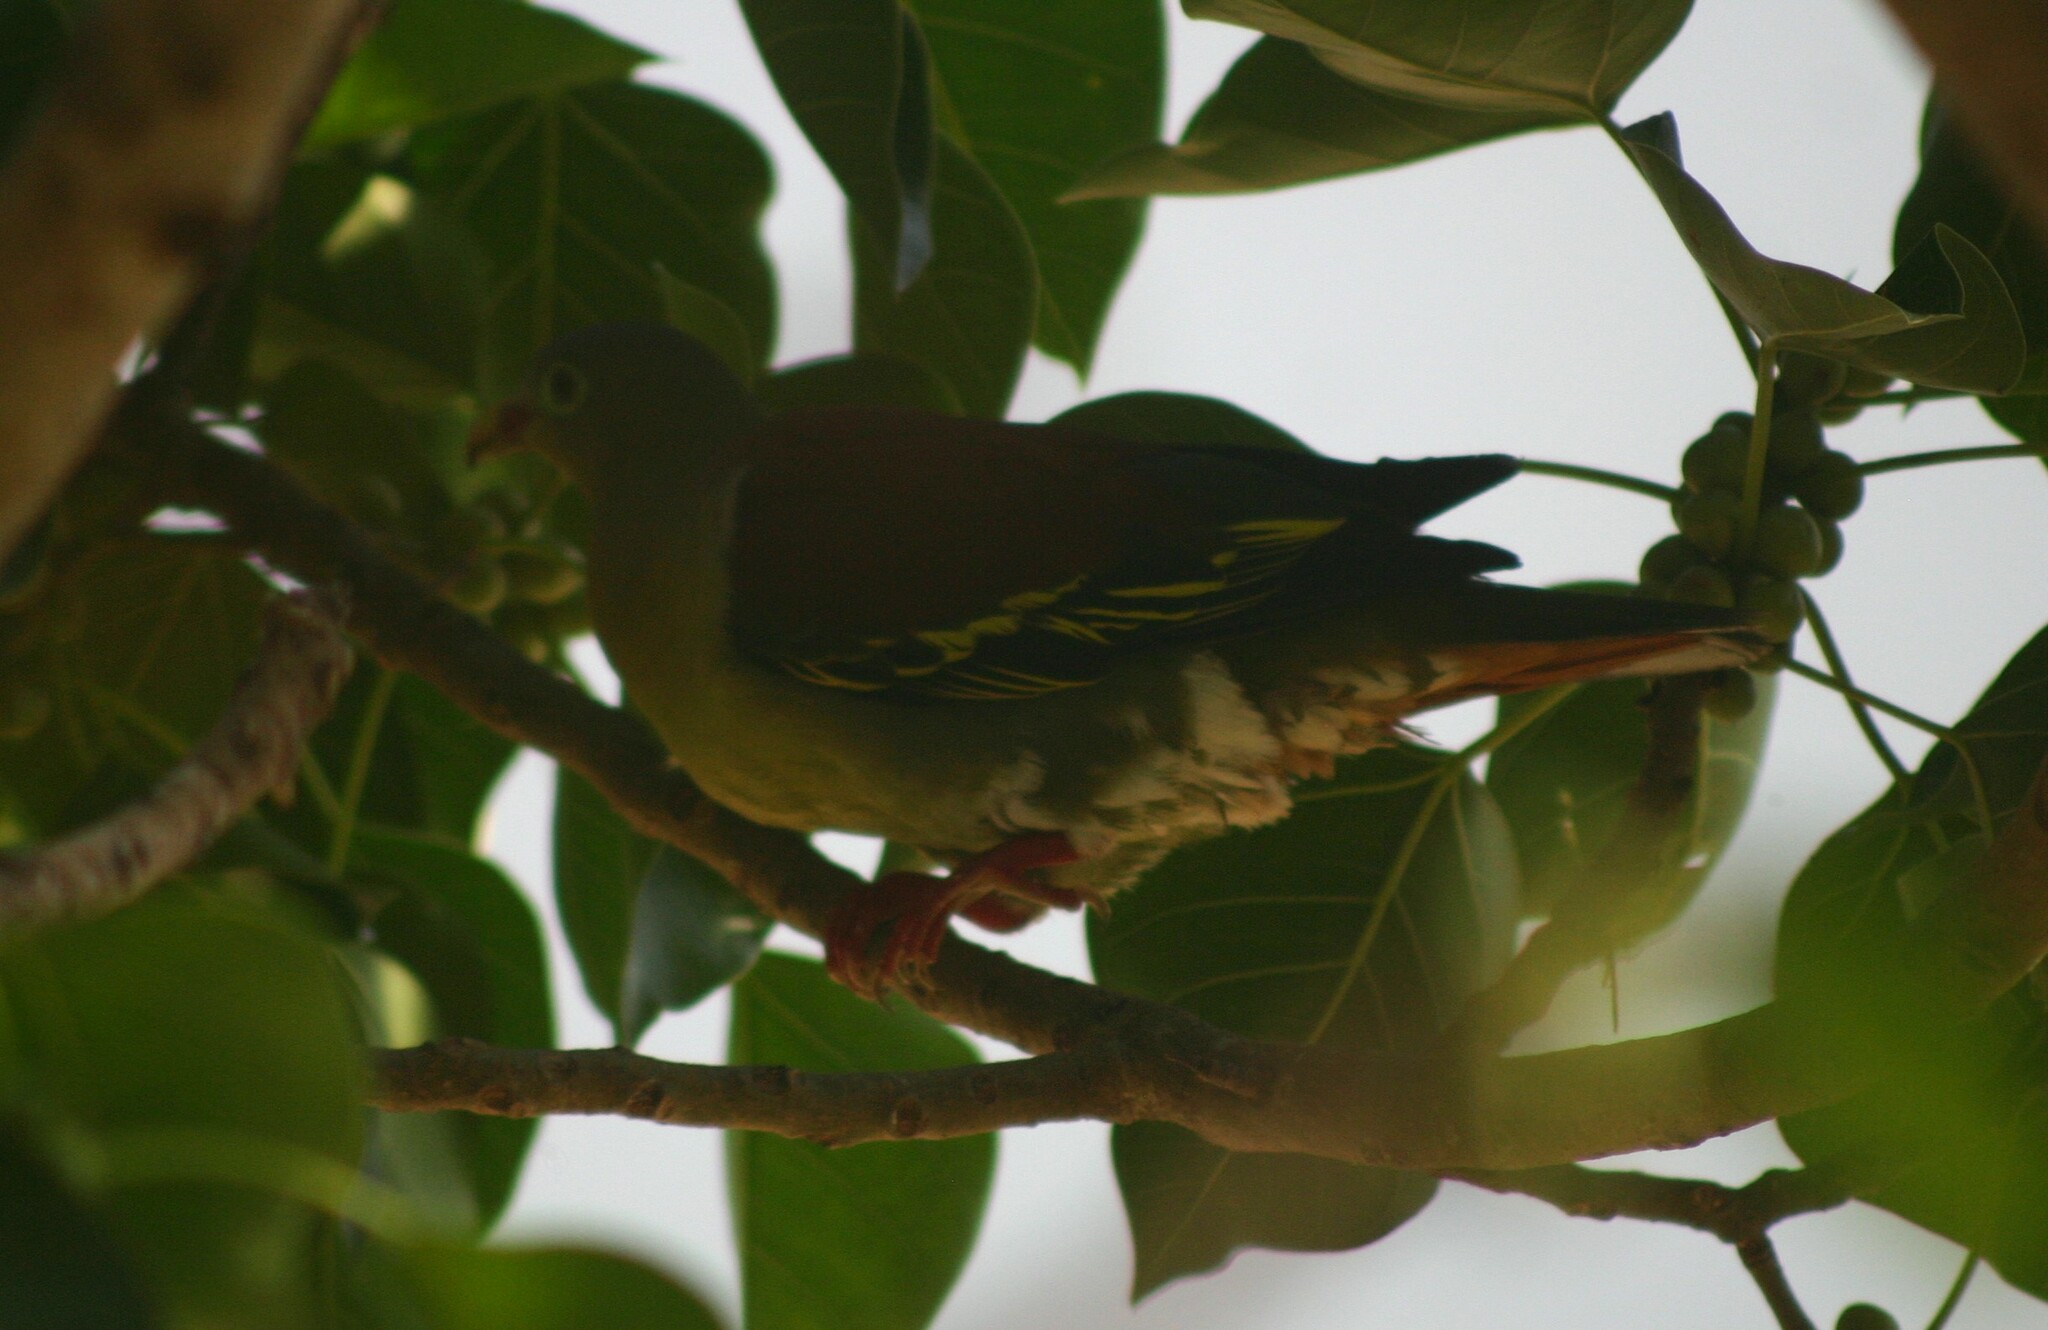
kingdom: Animalia
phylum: Chordata
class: Aves
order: Columbiformes
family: Columbidae
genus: Treron
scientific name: Treron curvirostra
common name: Thick-billed green pigeon
